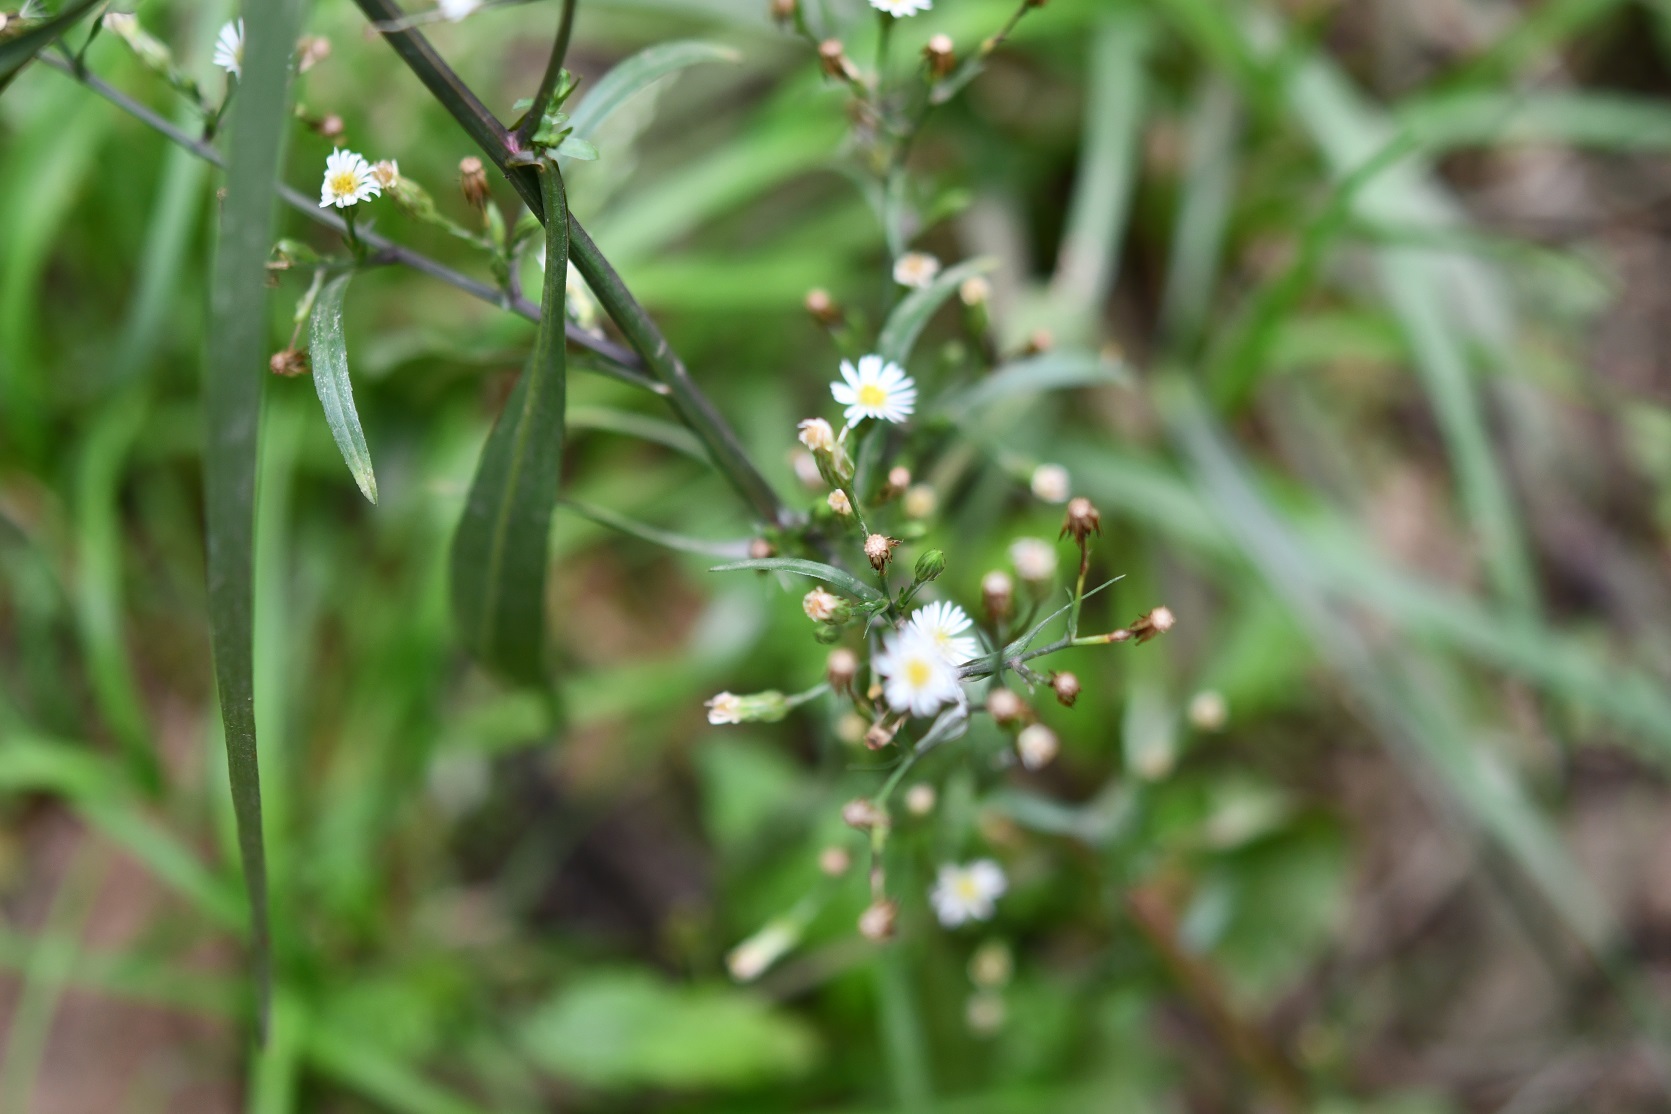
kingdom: Plantae
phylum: Tracheophyta
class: Magnoliopsida
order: Asterales
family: Asteraceae
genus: Symphyotrichum
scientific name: Symphyotrichum subulatum
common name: Annual saltmarsh aster
